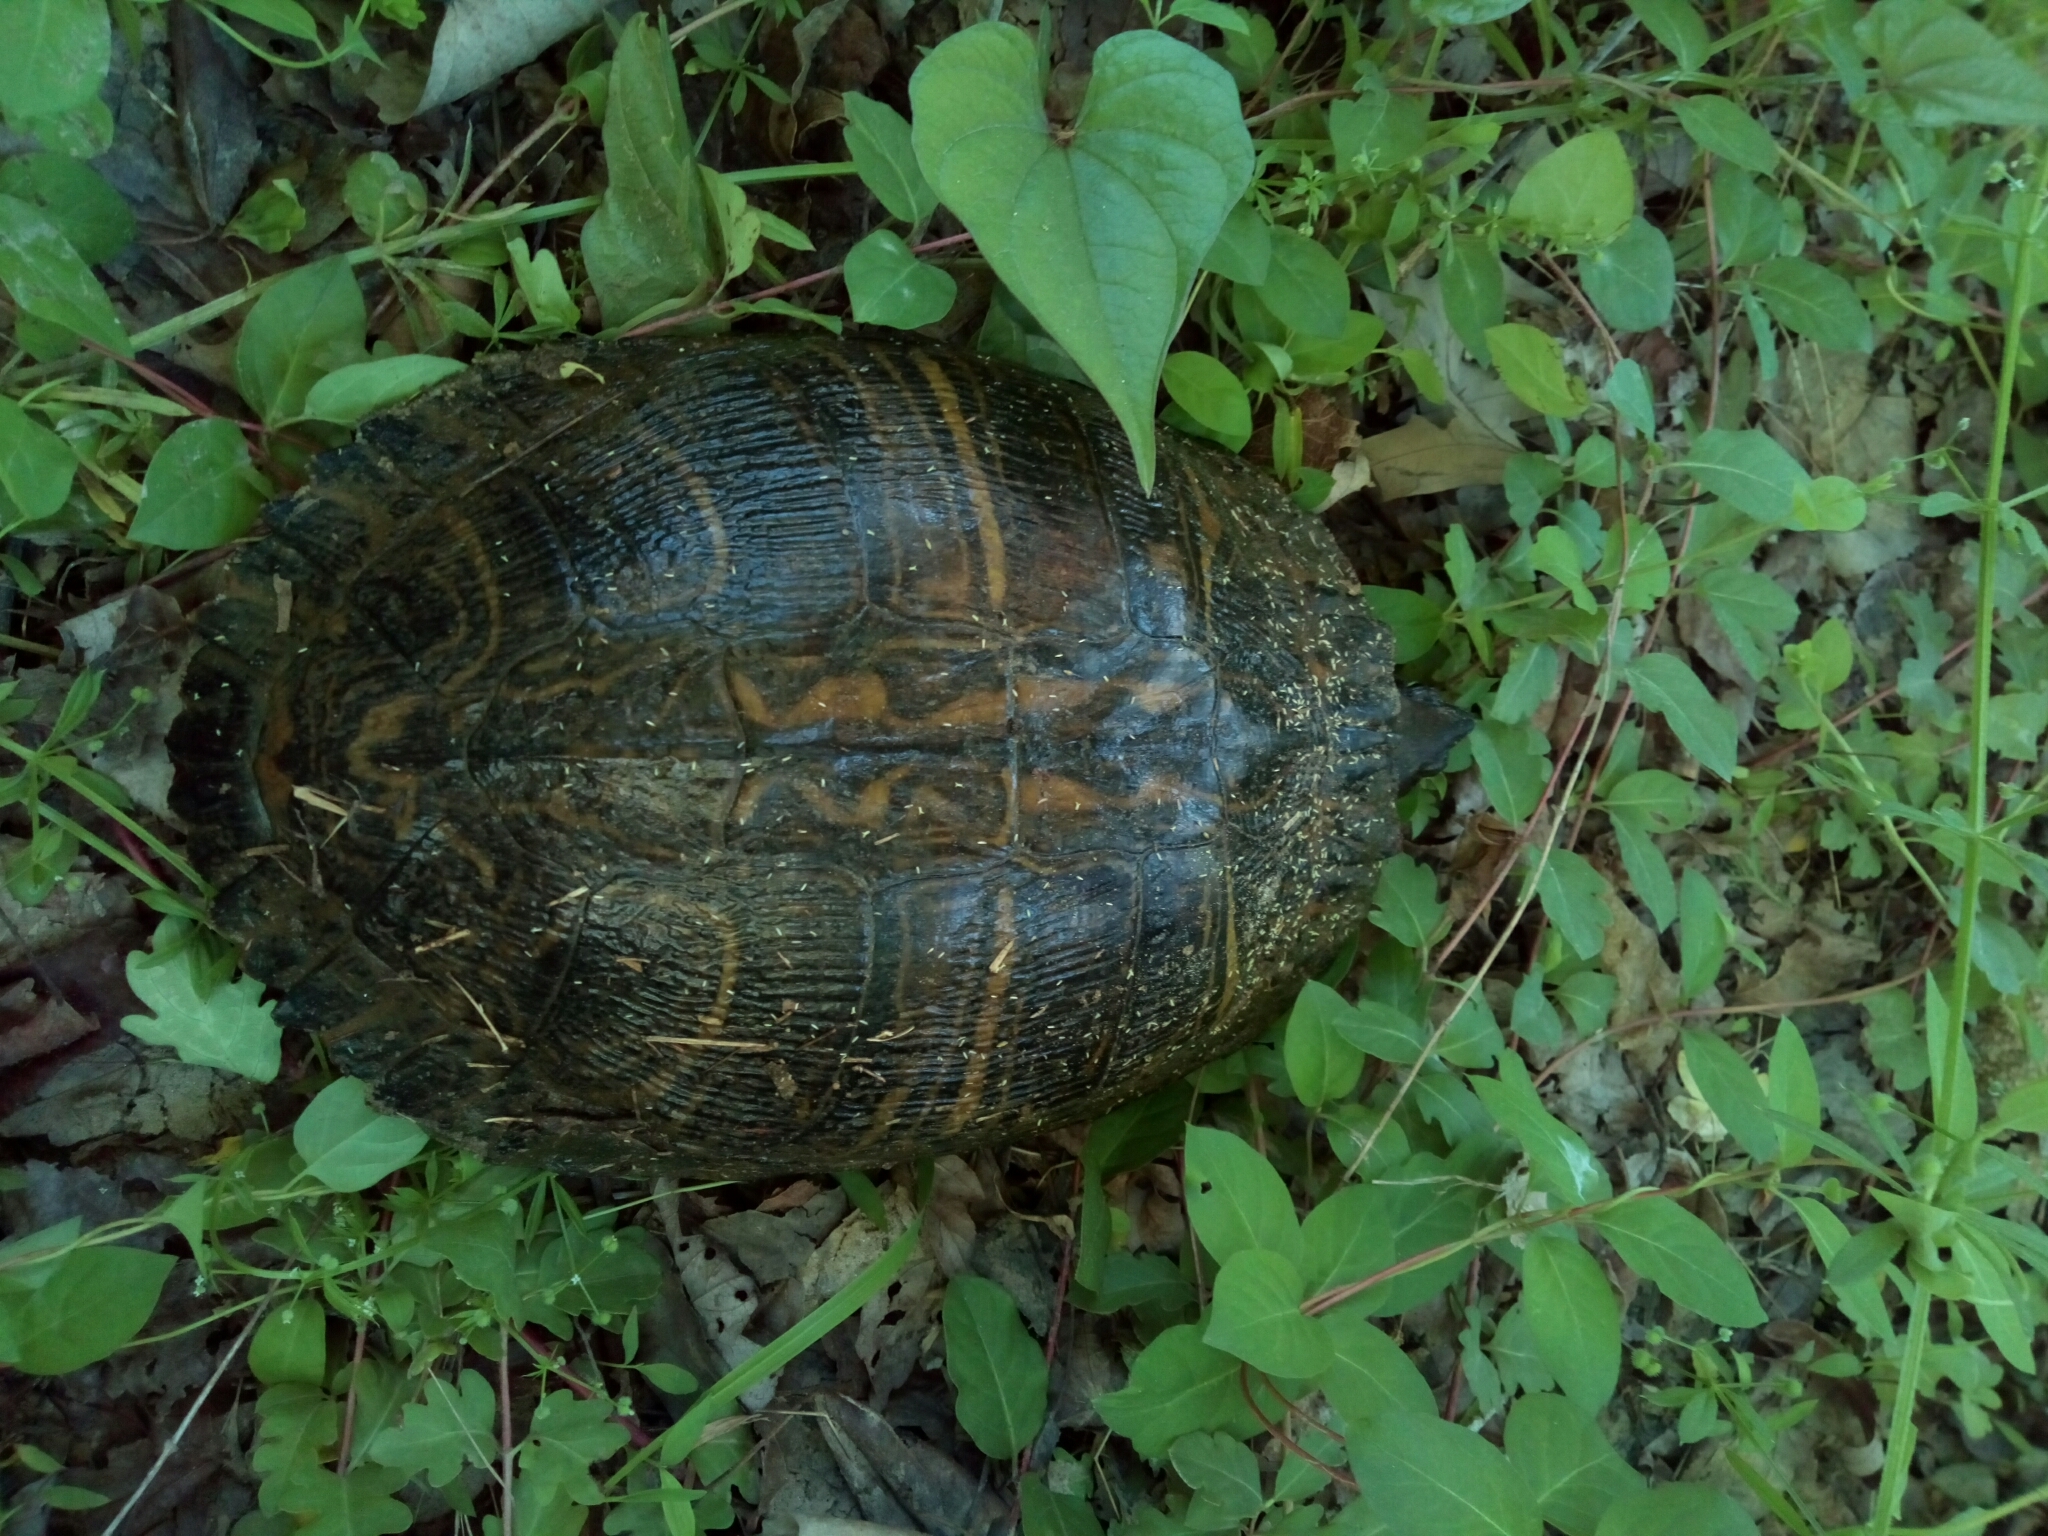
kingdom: Animalia
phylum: Chordata
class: Testudines
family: Emydidae
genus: Trachemys
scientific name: Trachemys scripta
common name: Slider
